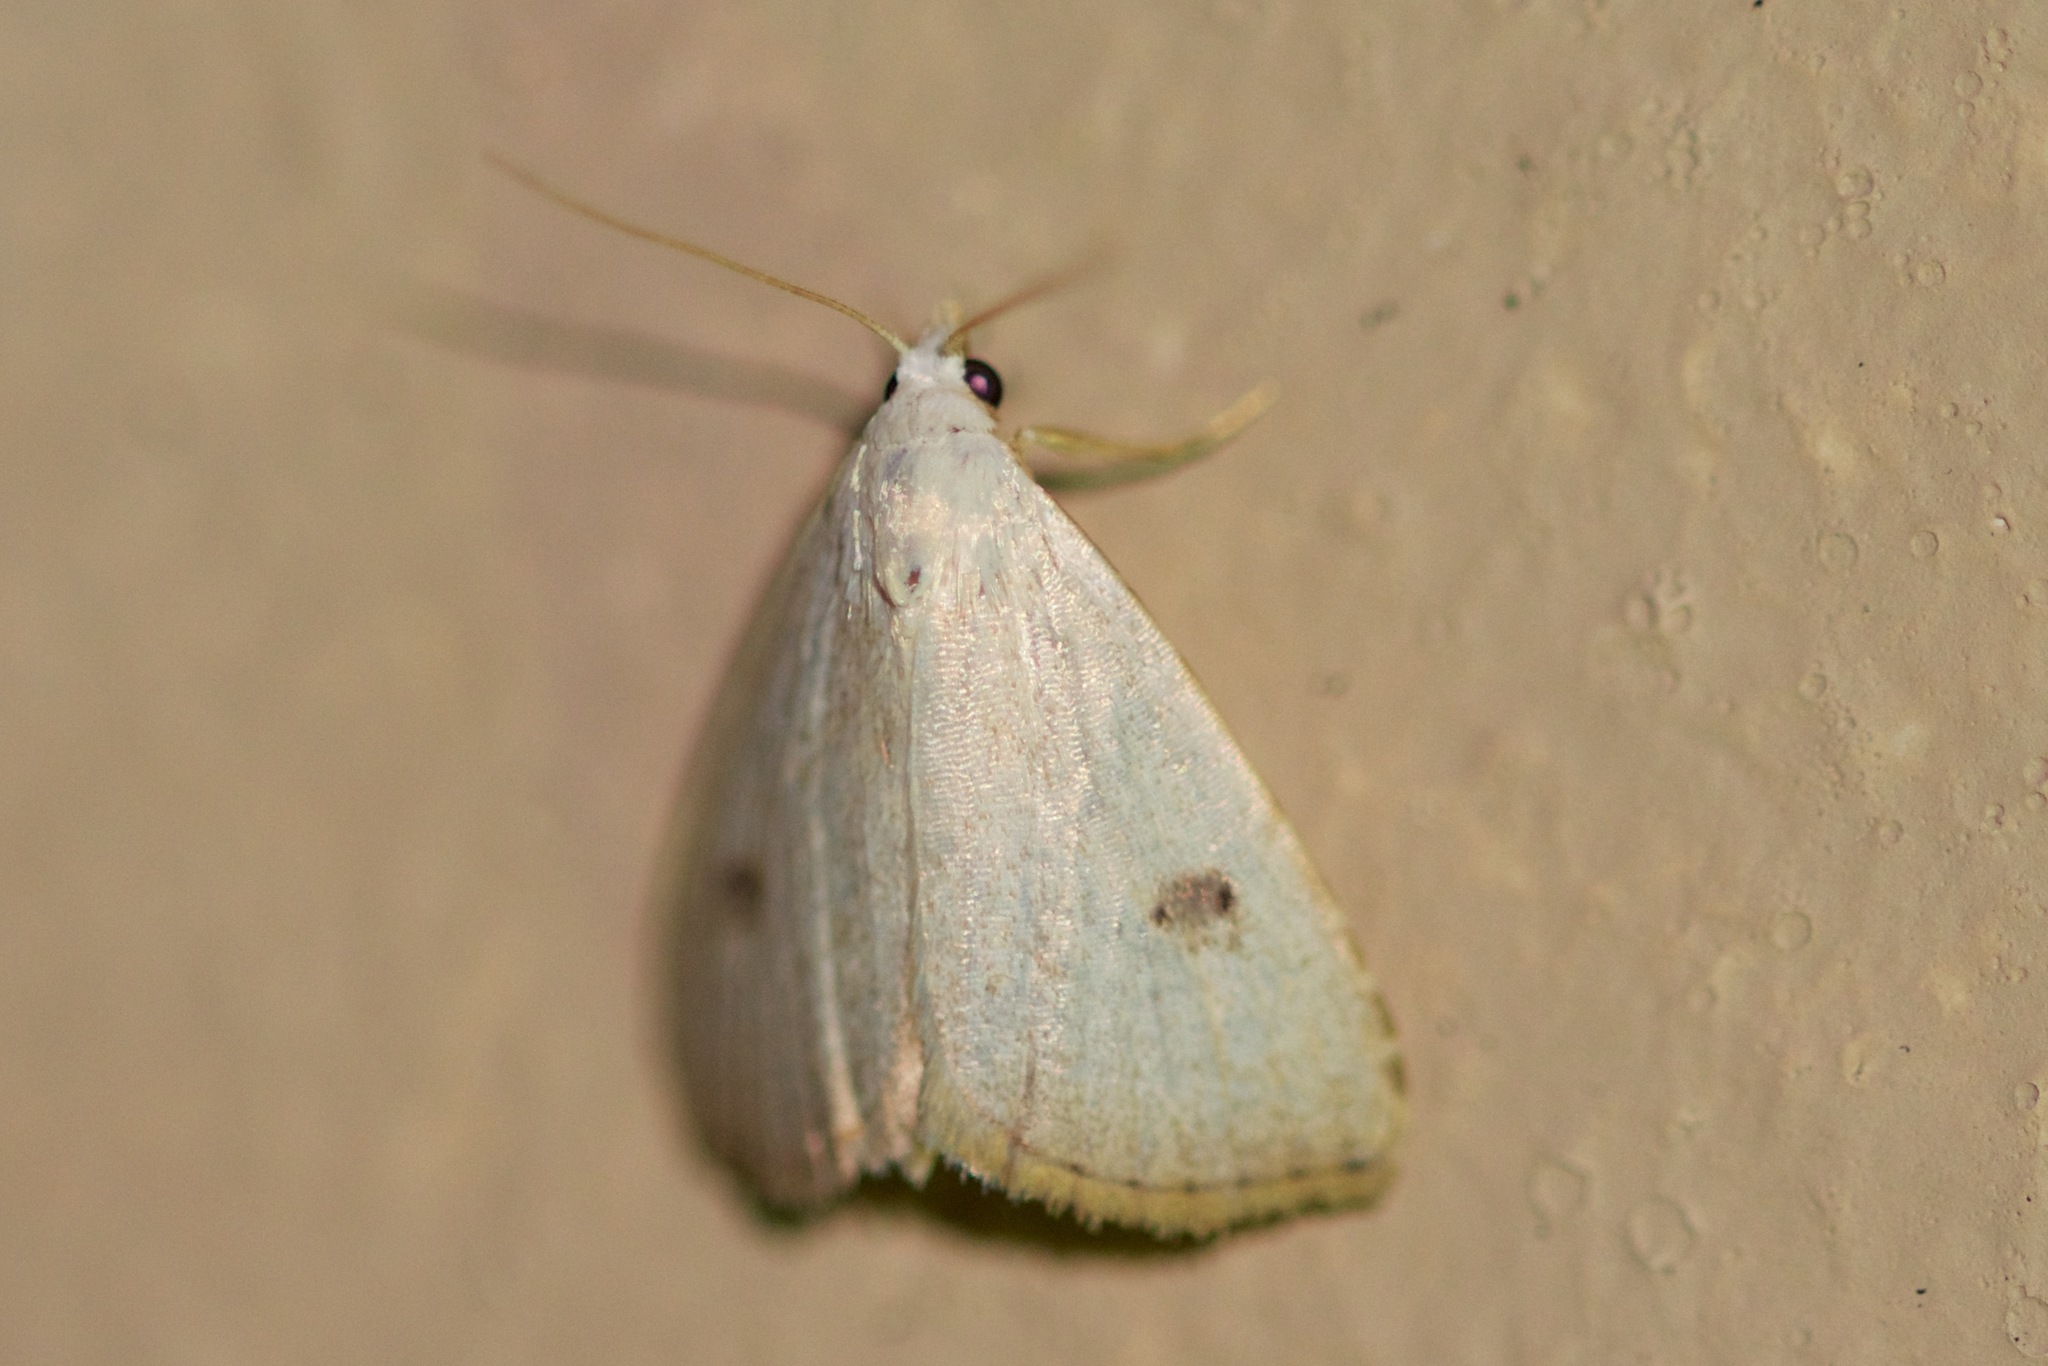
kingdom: Animalia
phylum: Arthropoda
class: Insecta
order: Lepidoptera
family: Erebidae
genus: Rivula
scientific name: Rivula propinqualis
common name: Spotted grass moth
